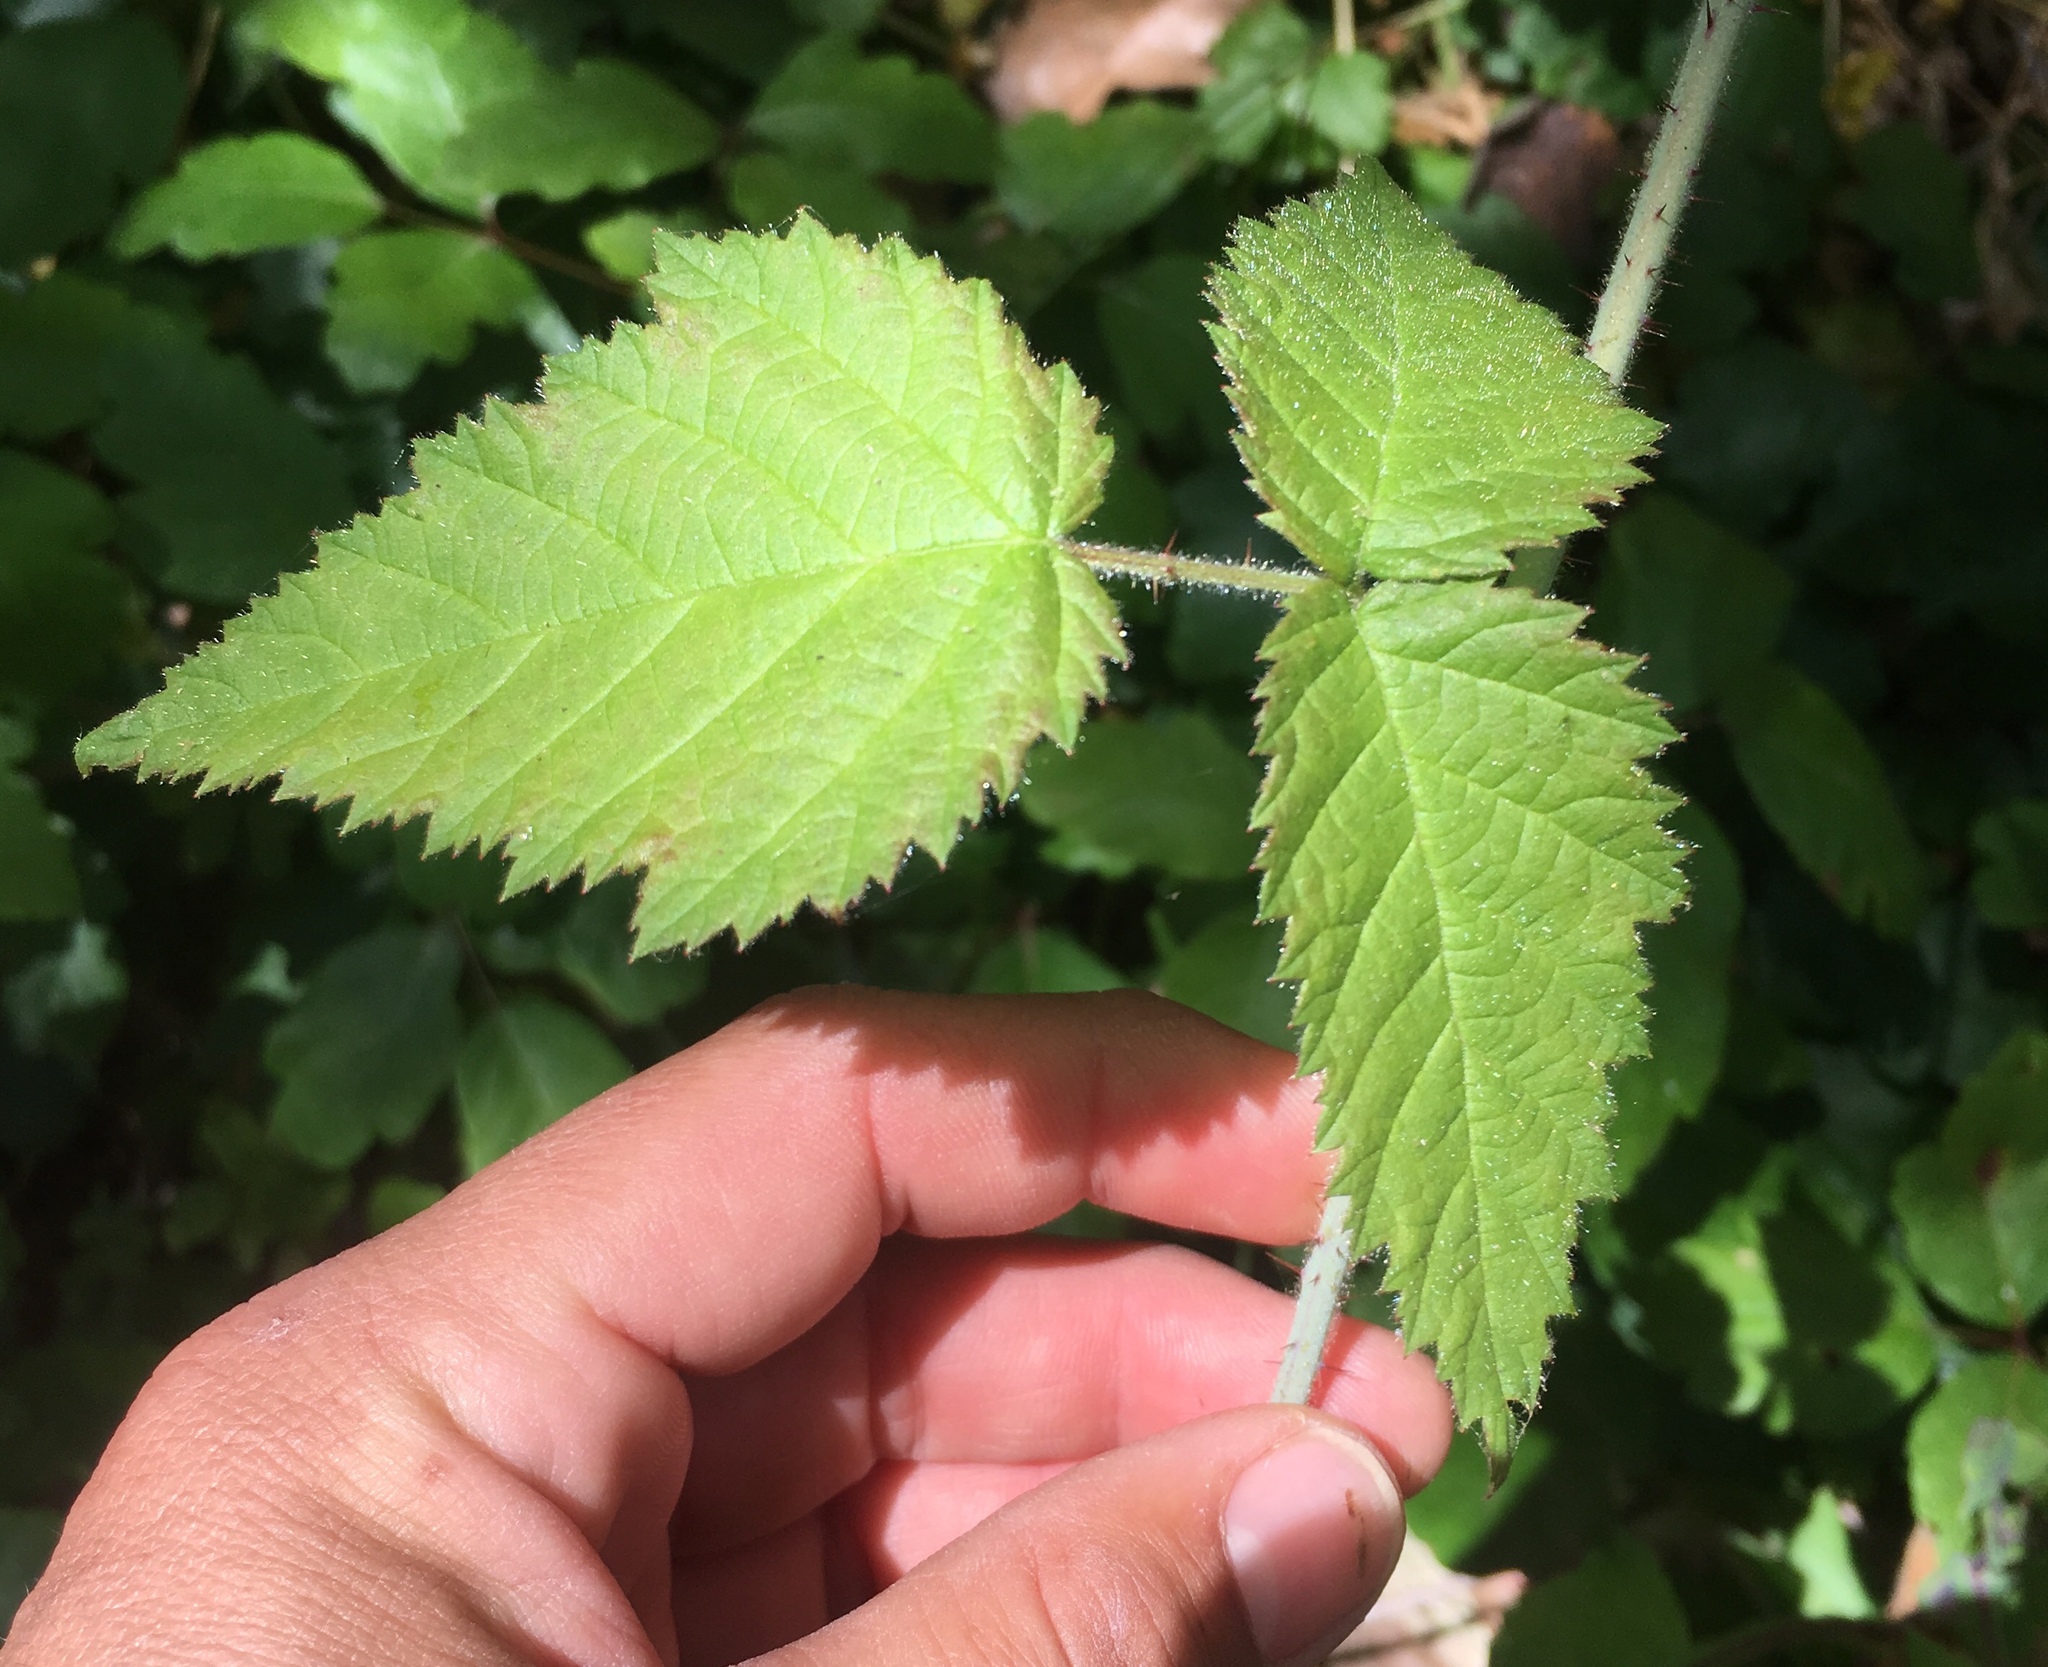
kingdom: Plantae
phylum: Tracheophyta
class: Magnoliopsida
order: Rosales
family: Rosaceae
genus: Rubus
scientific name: Rubus ursinus
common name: Pacific blackberry
